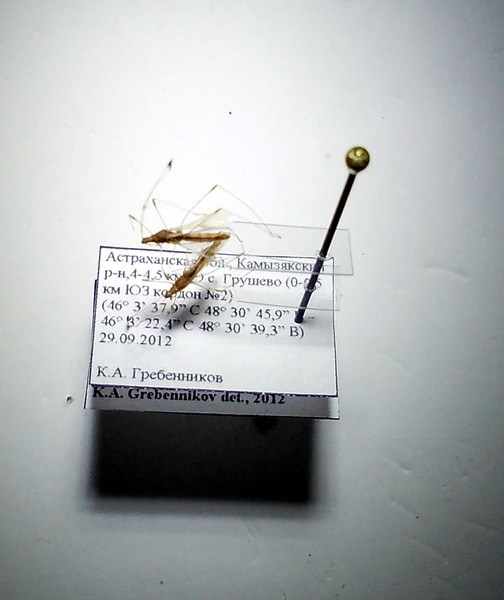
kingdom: Animalia
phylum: Arthropoda
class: Insecta
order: Hemiptera
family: Berytidae
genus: Metacanthus
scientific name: Metacanthus meridionalis
